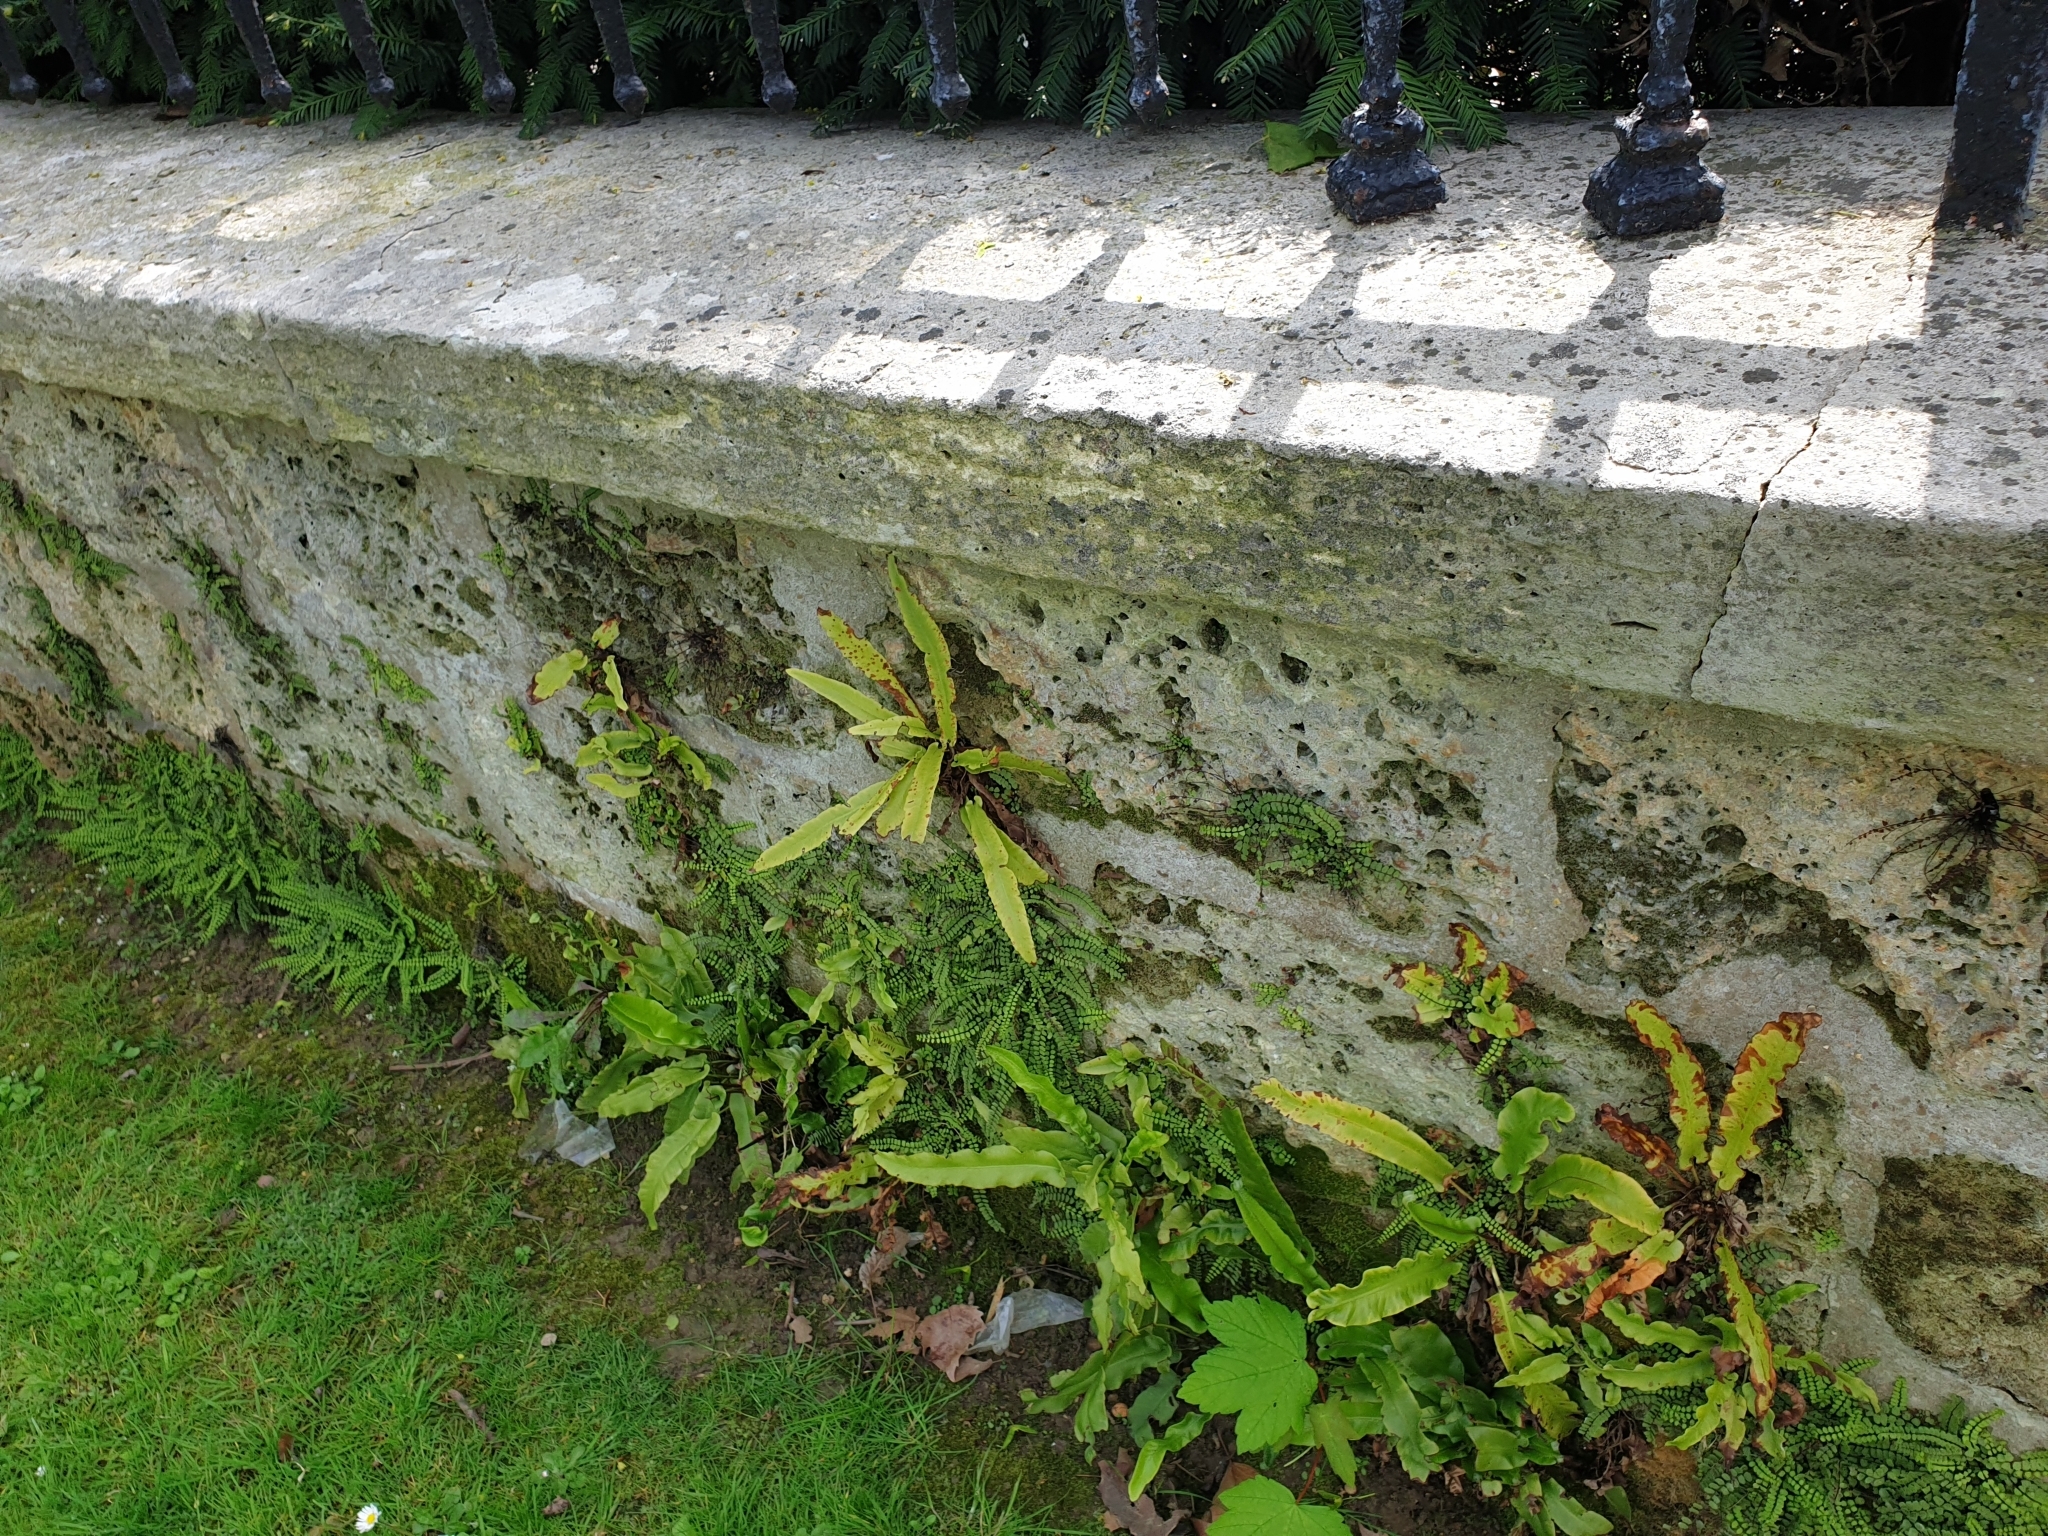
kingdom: Plantae
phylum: Tracheophyta
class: Polypodiopsida
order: Polypodiales
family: Aspleniaceae
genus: Asplenium
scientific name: Asplenium trichomanes
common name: Maidenhair spleenwort
